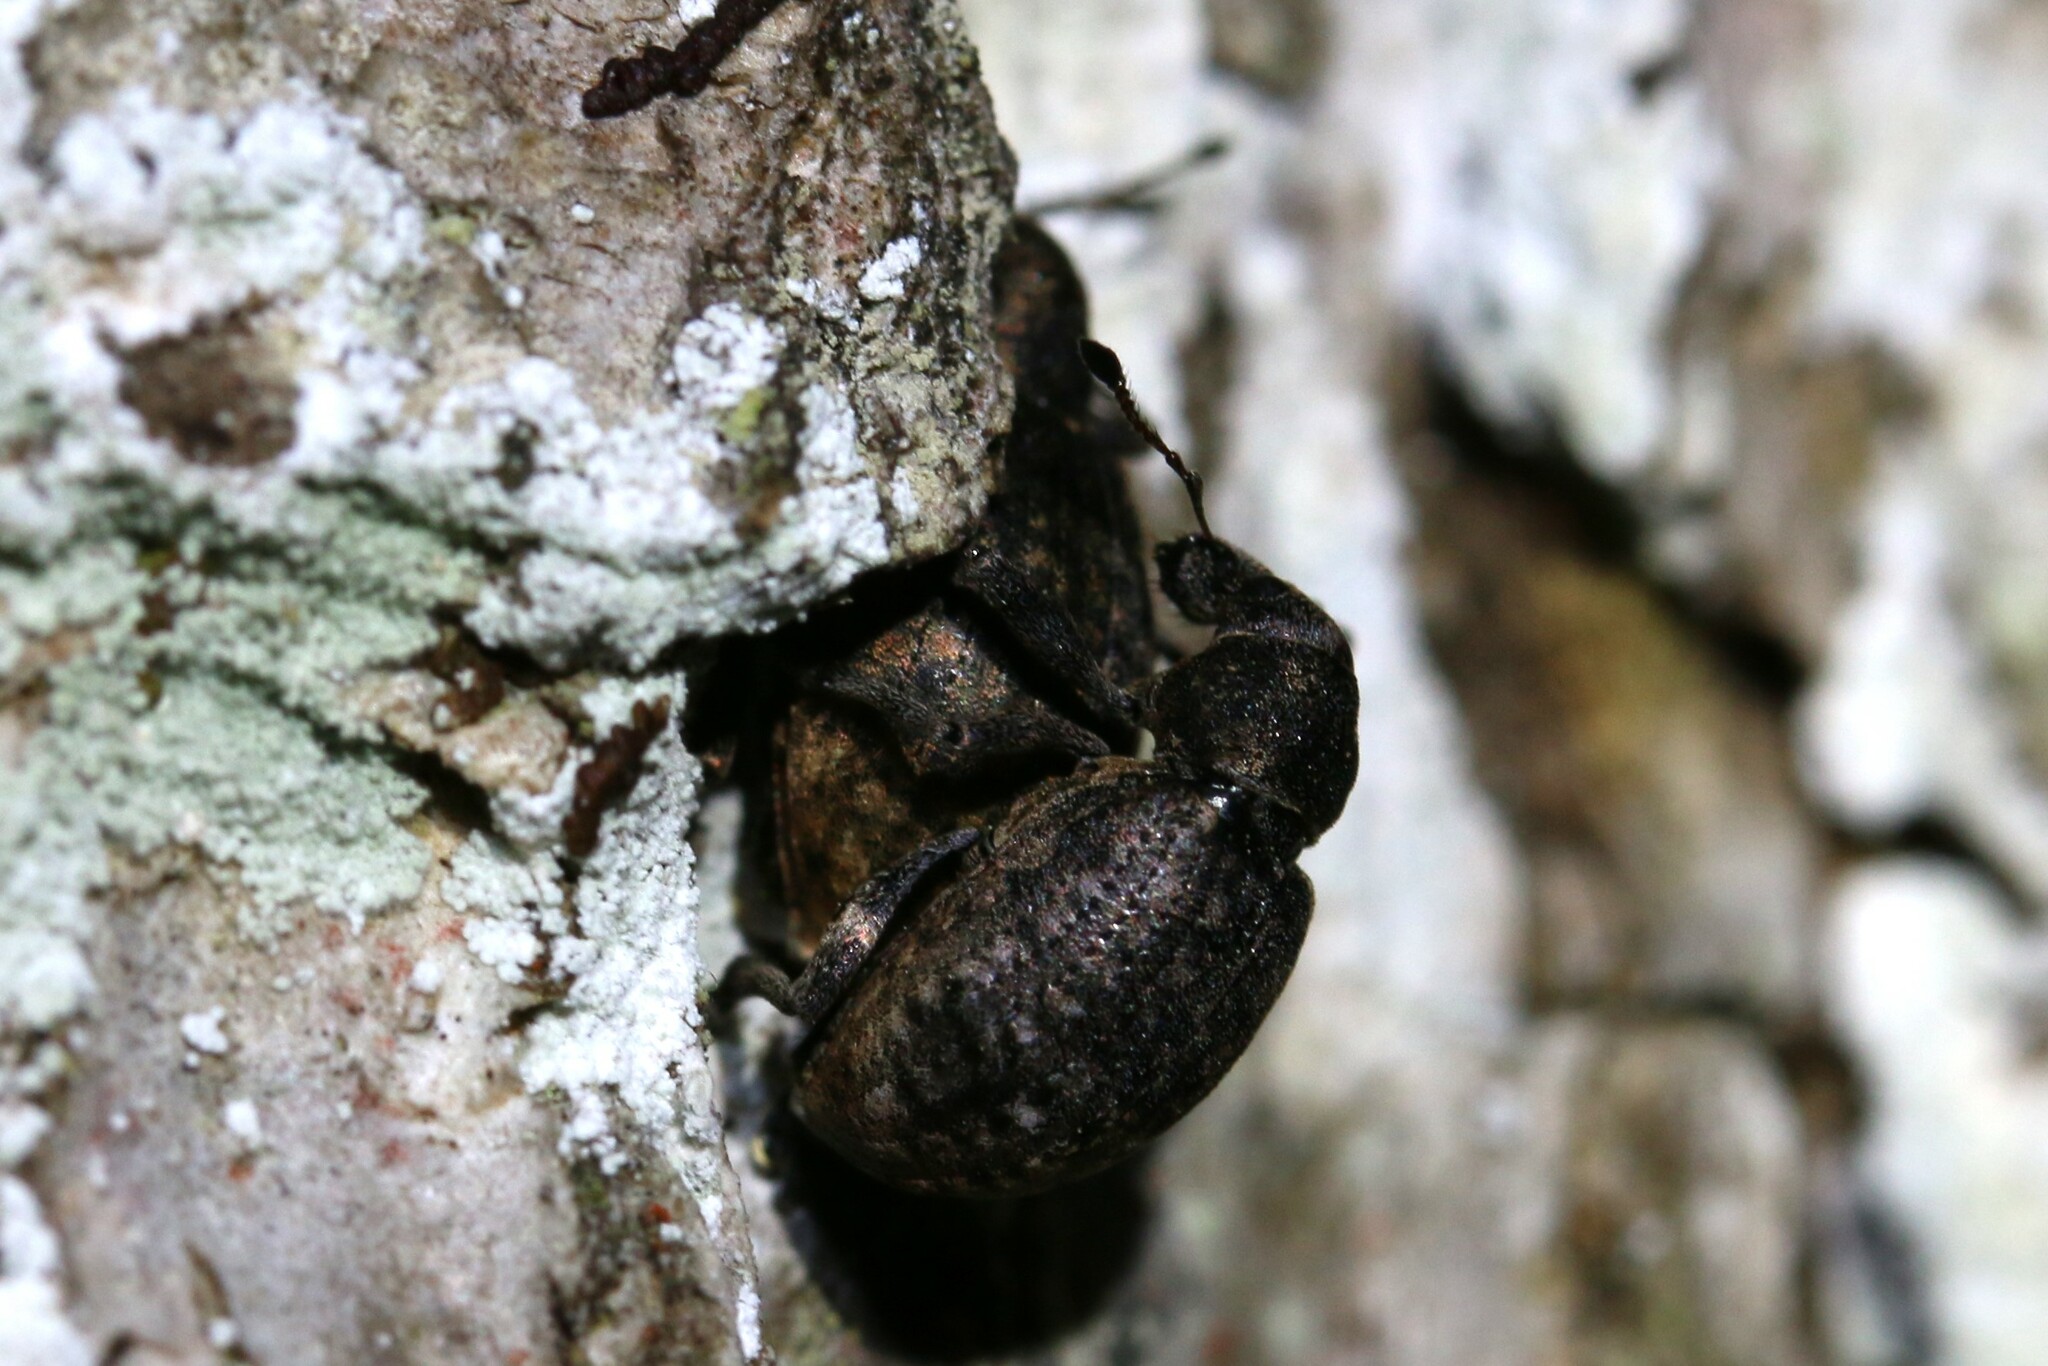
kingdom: Animalia
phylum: Arthropoda
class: Insecta
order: Coleoptera
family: Curculionidae
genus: Liophloeus
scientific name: Liophloeus tessulatus
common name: Weevil
